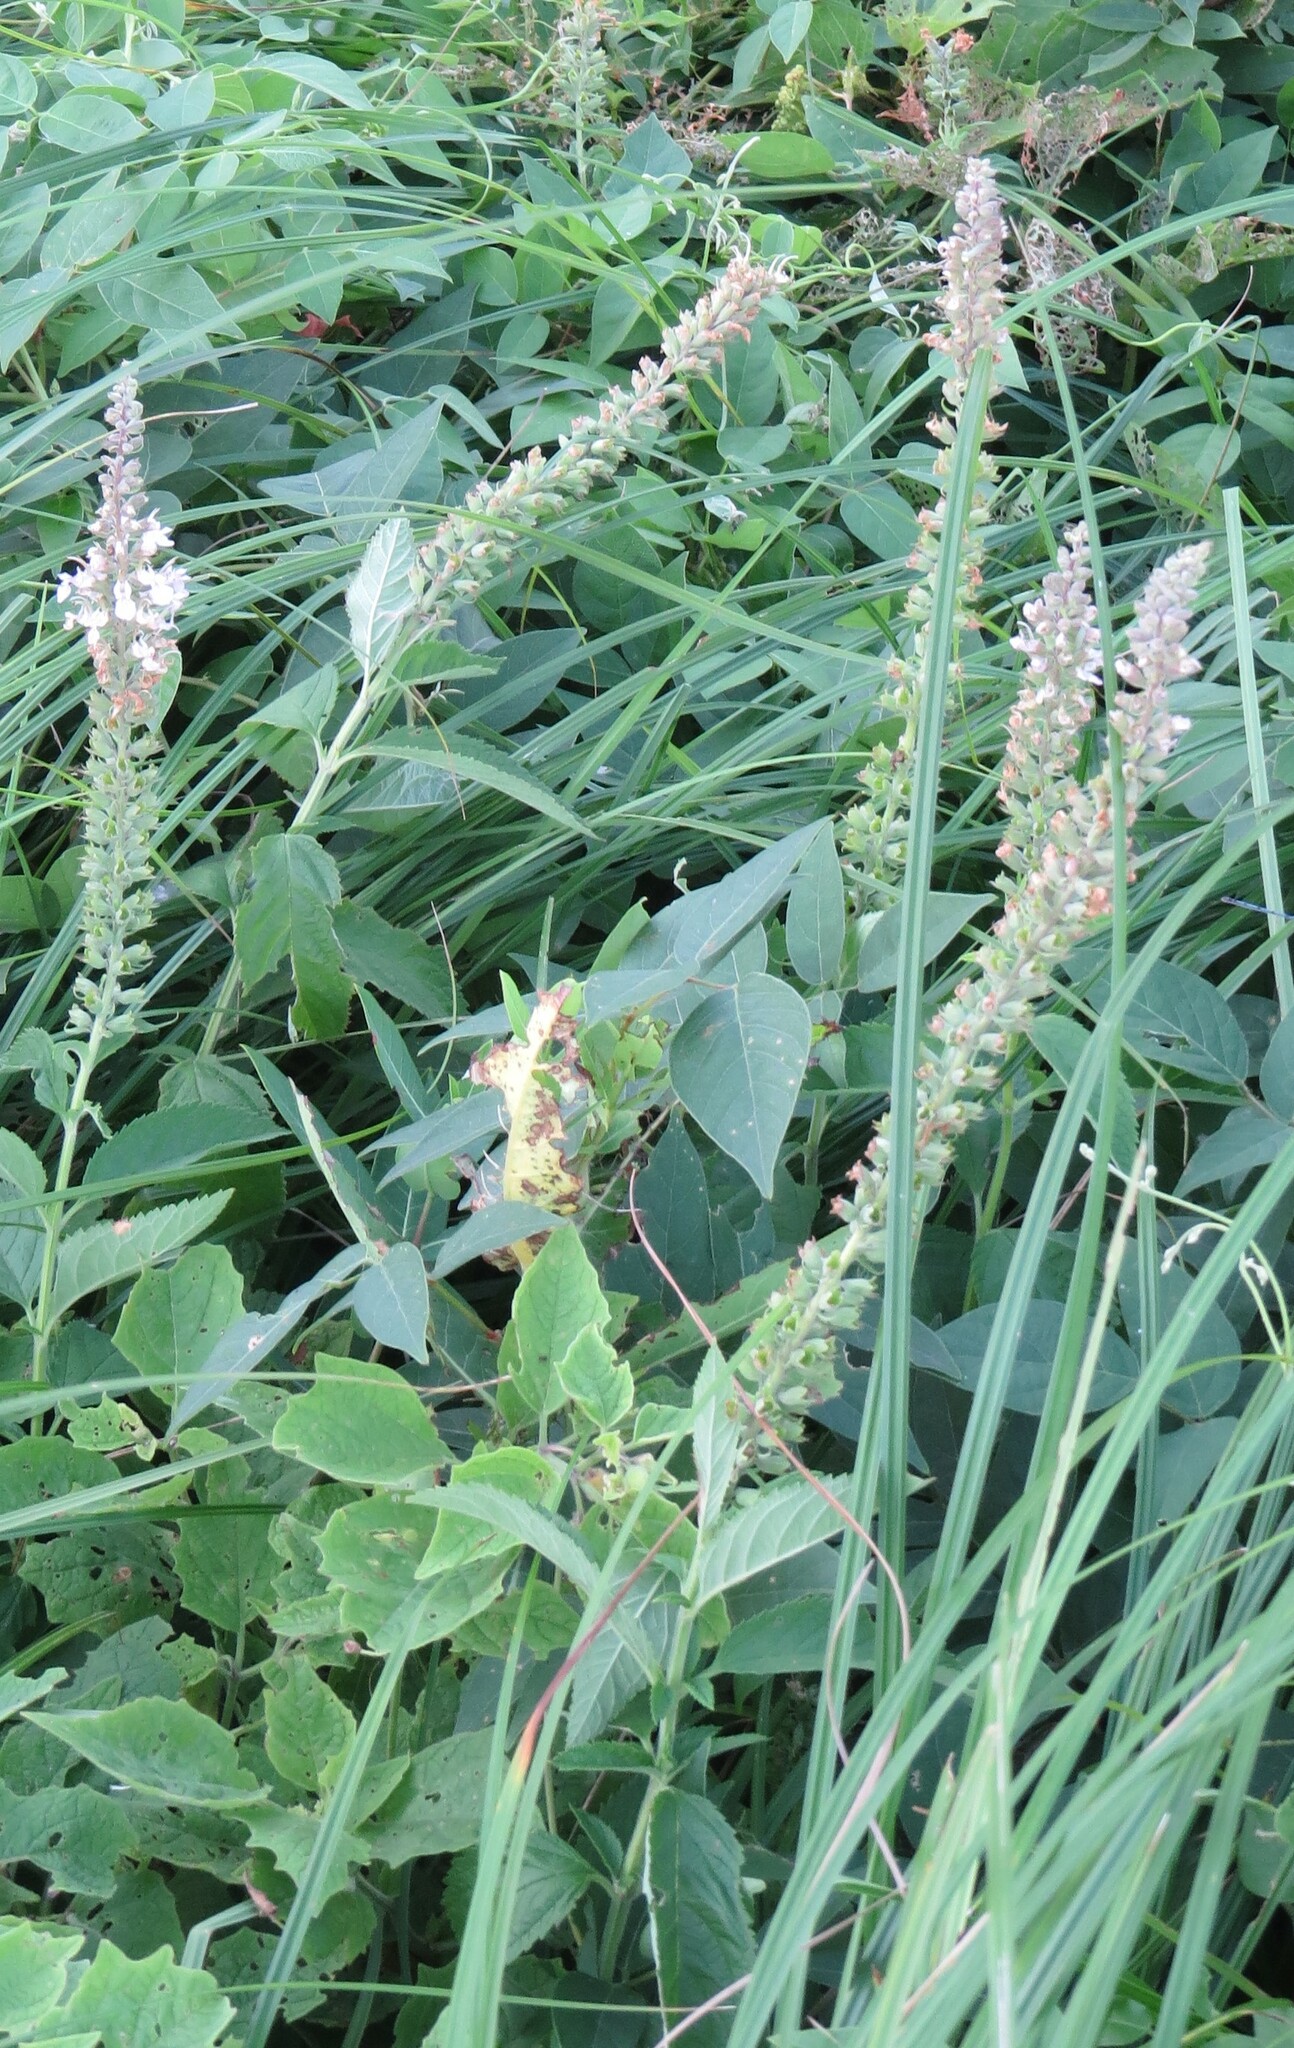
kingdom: Plantae
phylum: Tracheophyta
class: Magnoliopsida
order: Lamiales
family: Lamiaceae
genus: Teucrium
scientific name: Teucrium canadense
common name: American germander
